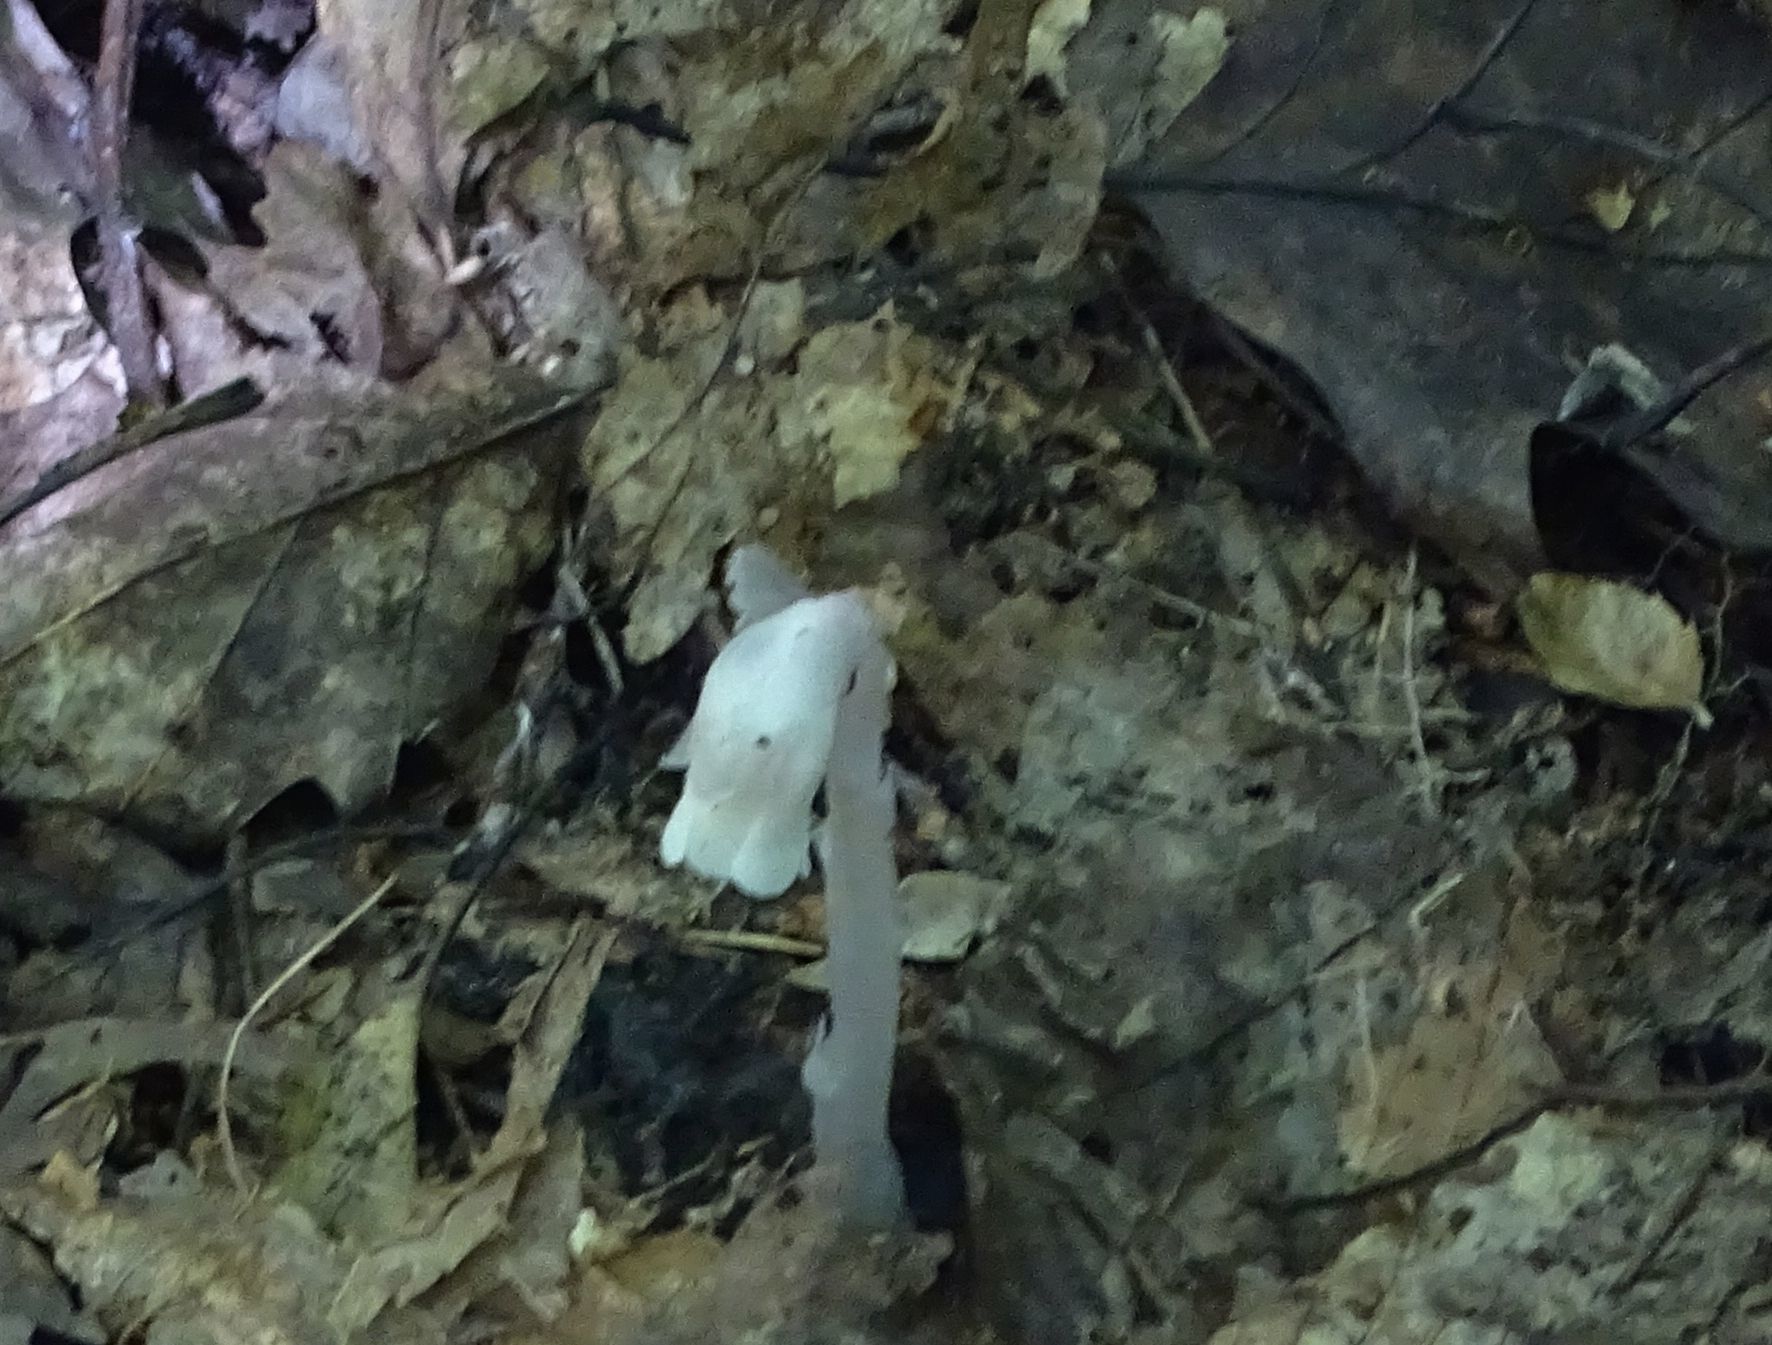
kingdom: Plantae
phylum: Tracheophyta
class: Magnoliopsida
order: Ericales
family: Ericaceae
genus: Monotropa
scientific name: Monotropa uniflora
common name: Convulsion root
